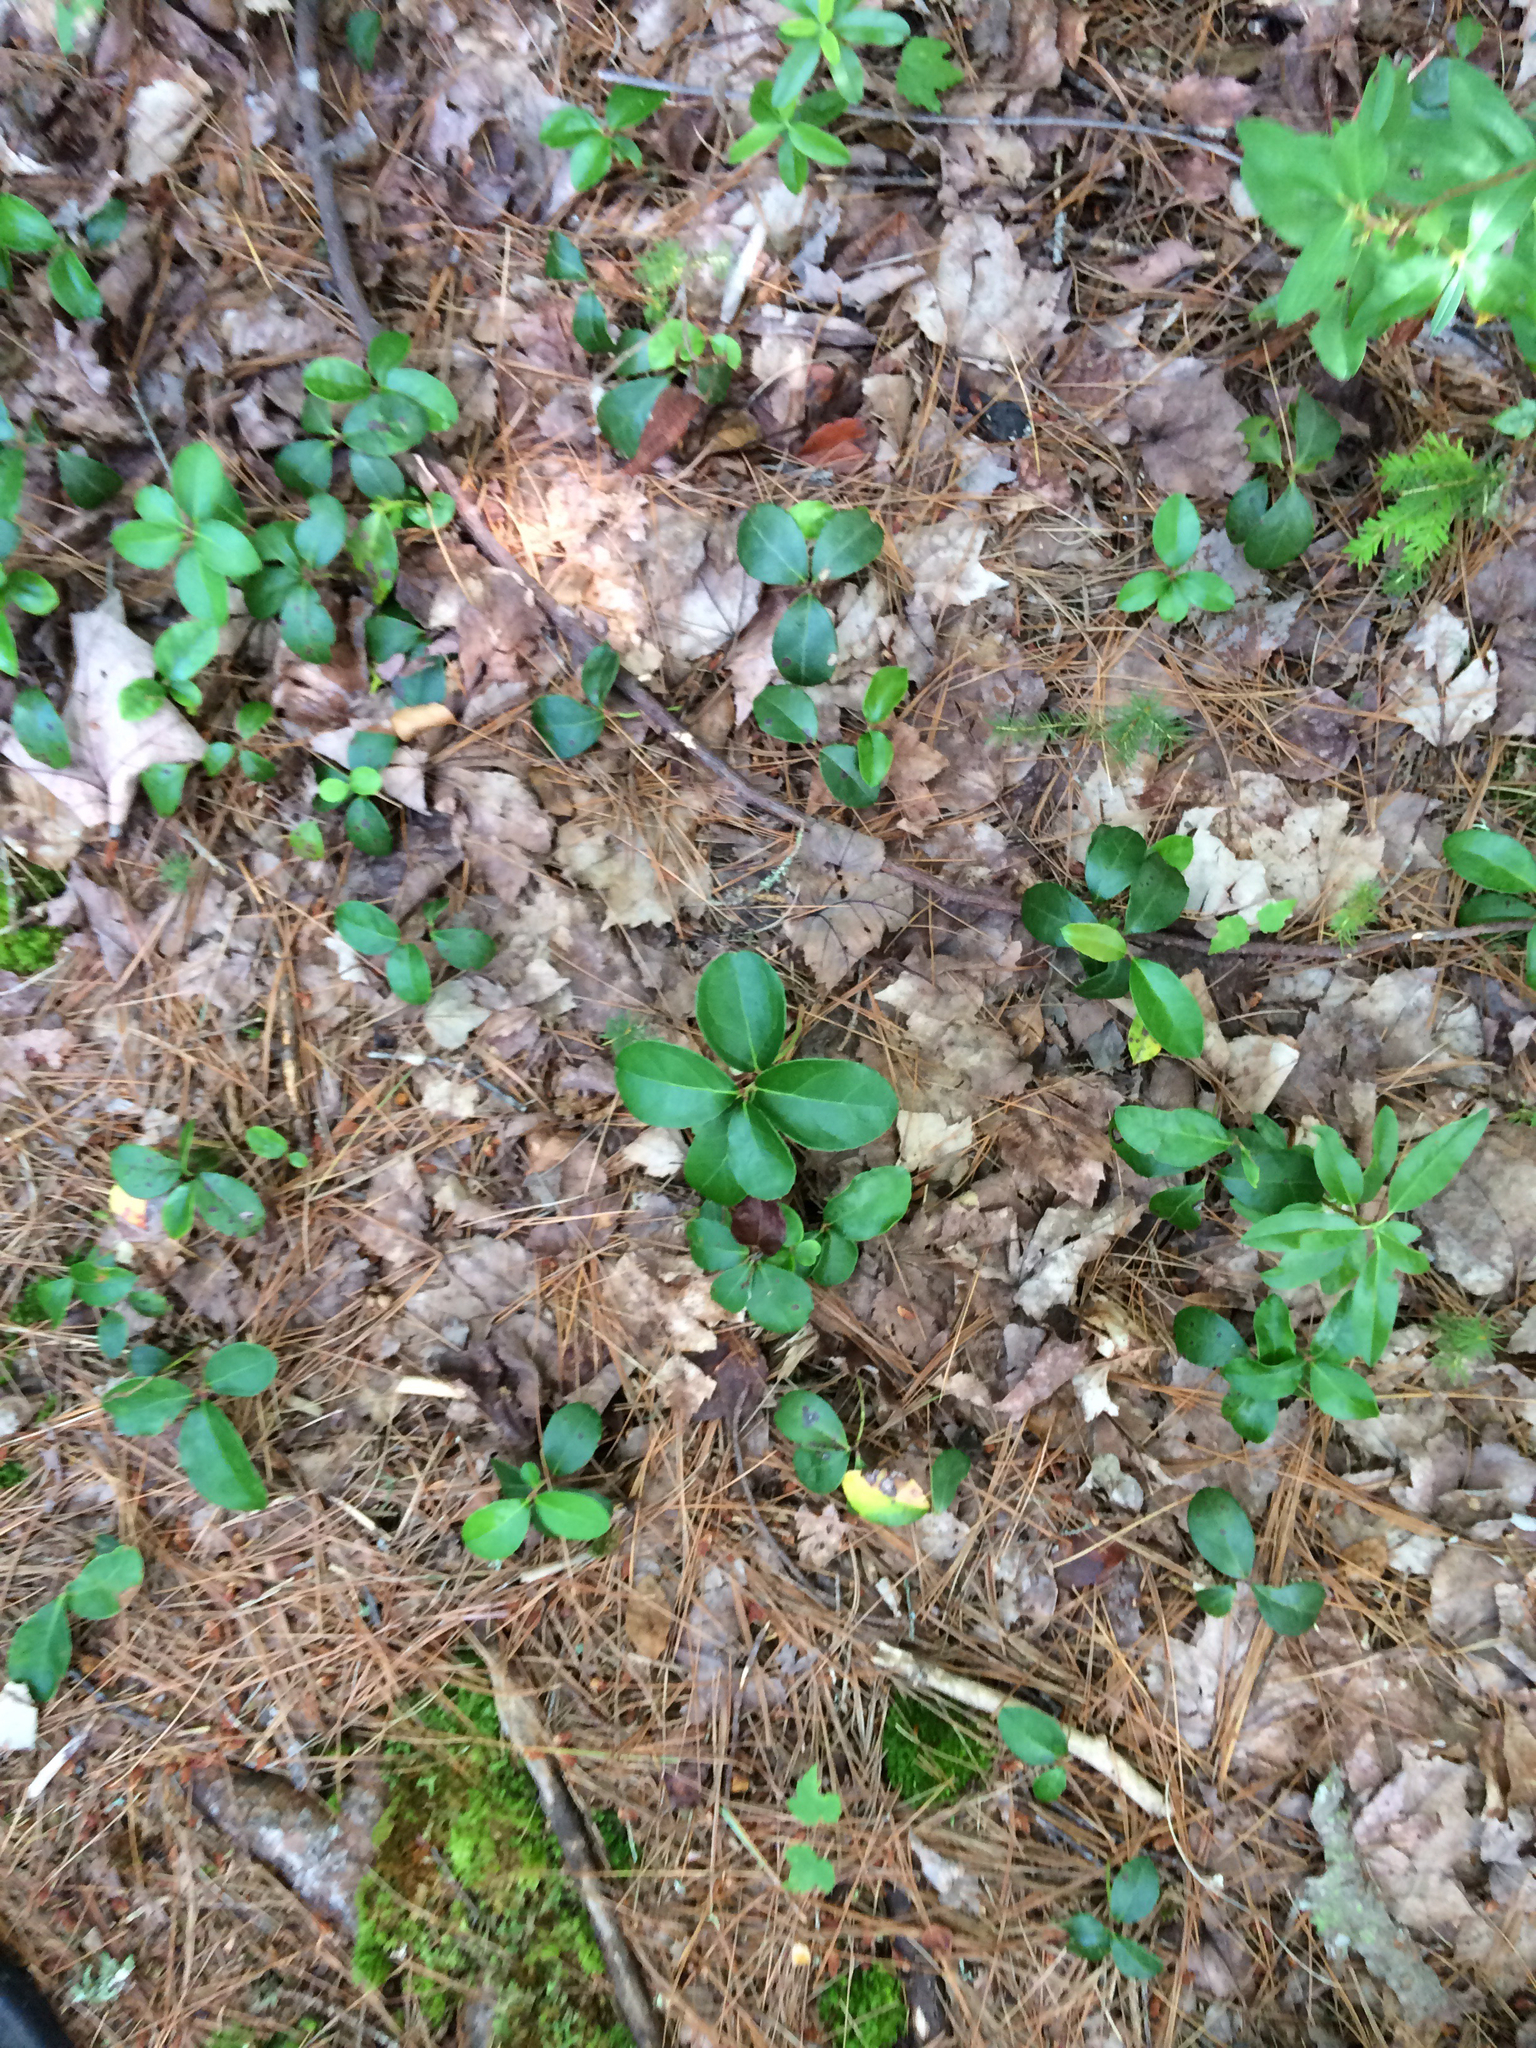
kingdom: Plantae
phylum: Tracheophyta
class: Magnoliopsida
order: Ericales
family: Ericaceae
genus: Gaultheria
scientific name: Gaultheria procumbens
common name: Checkerberry
